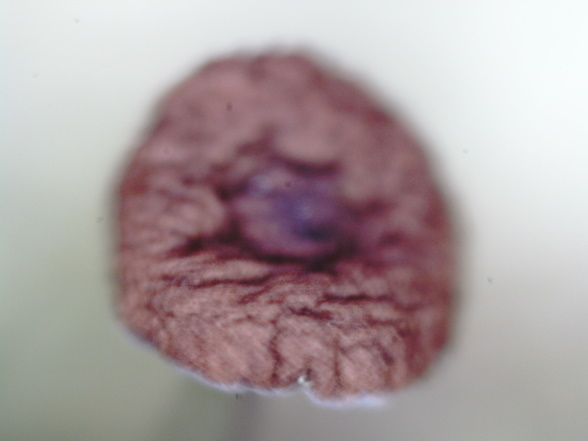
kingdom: Fungi
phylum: Basidiomycota
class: Agaricomycetes
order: Agaricales
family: Marasmiaceae
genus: Marasmius
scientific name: Marasmius rotula
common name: Collared parachute
